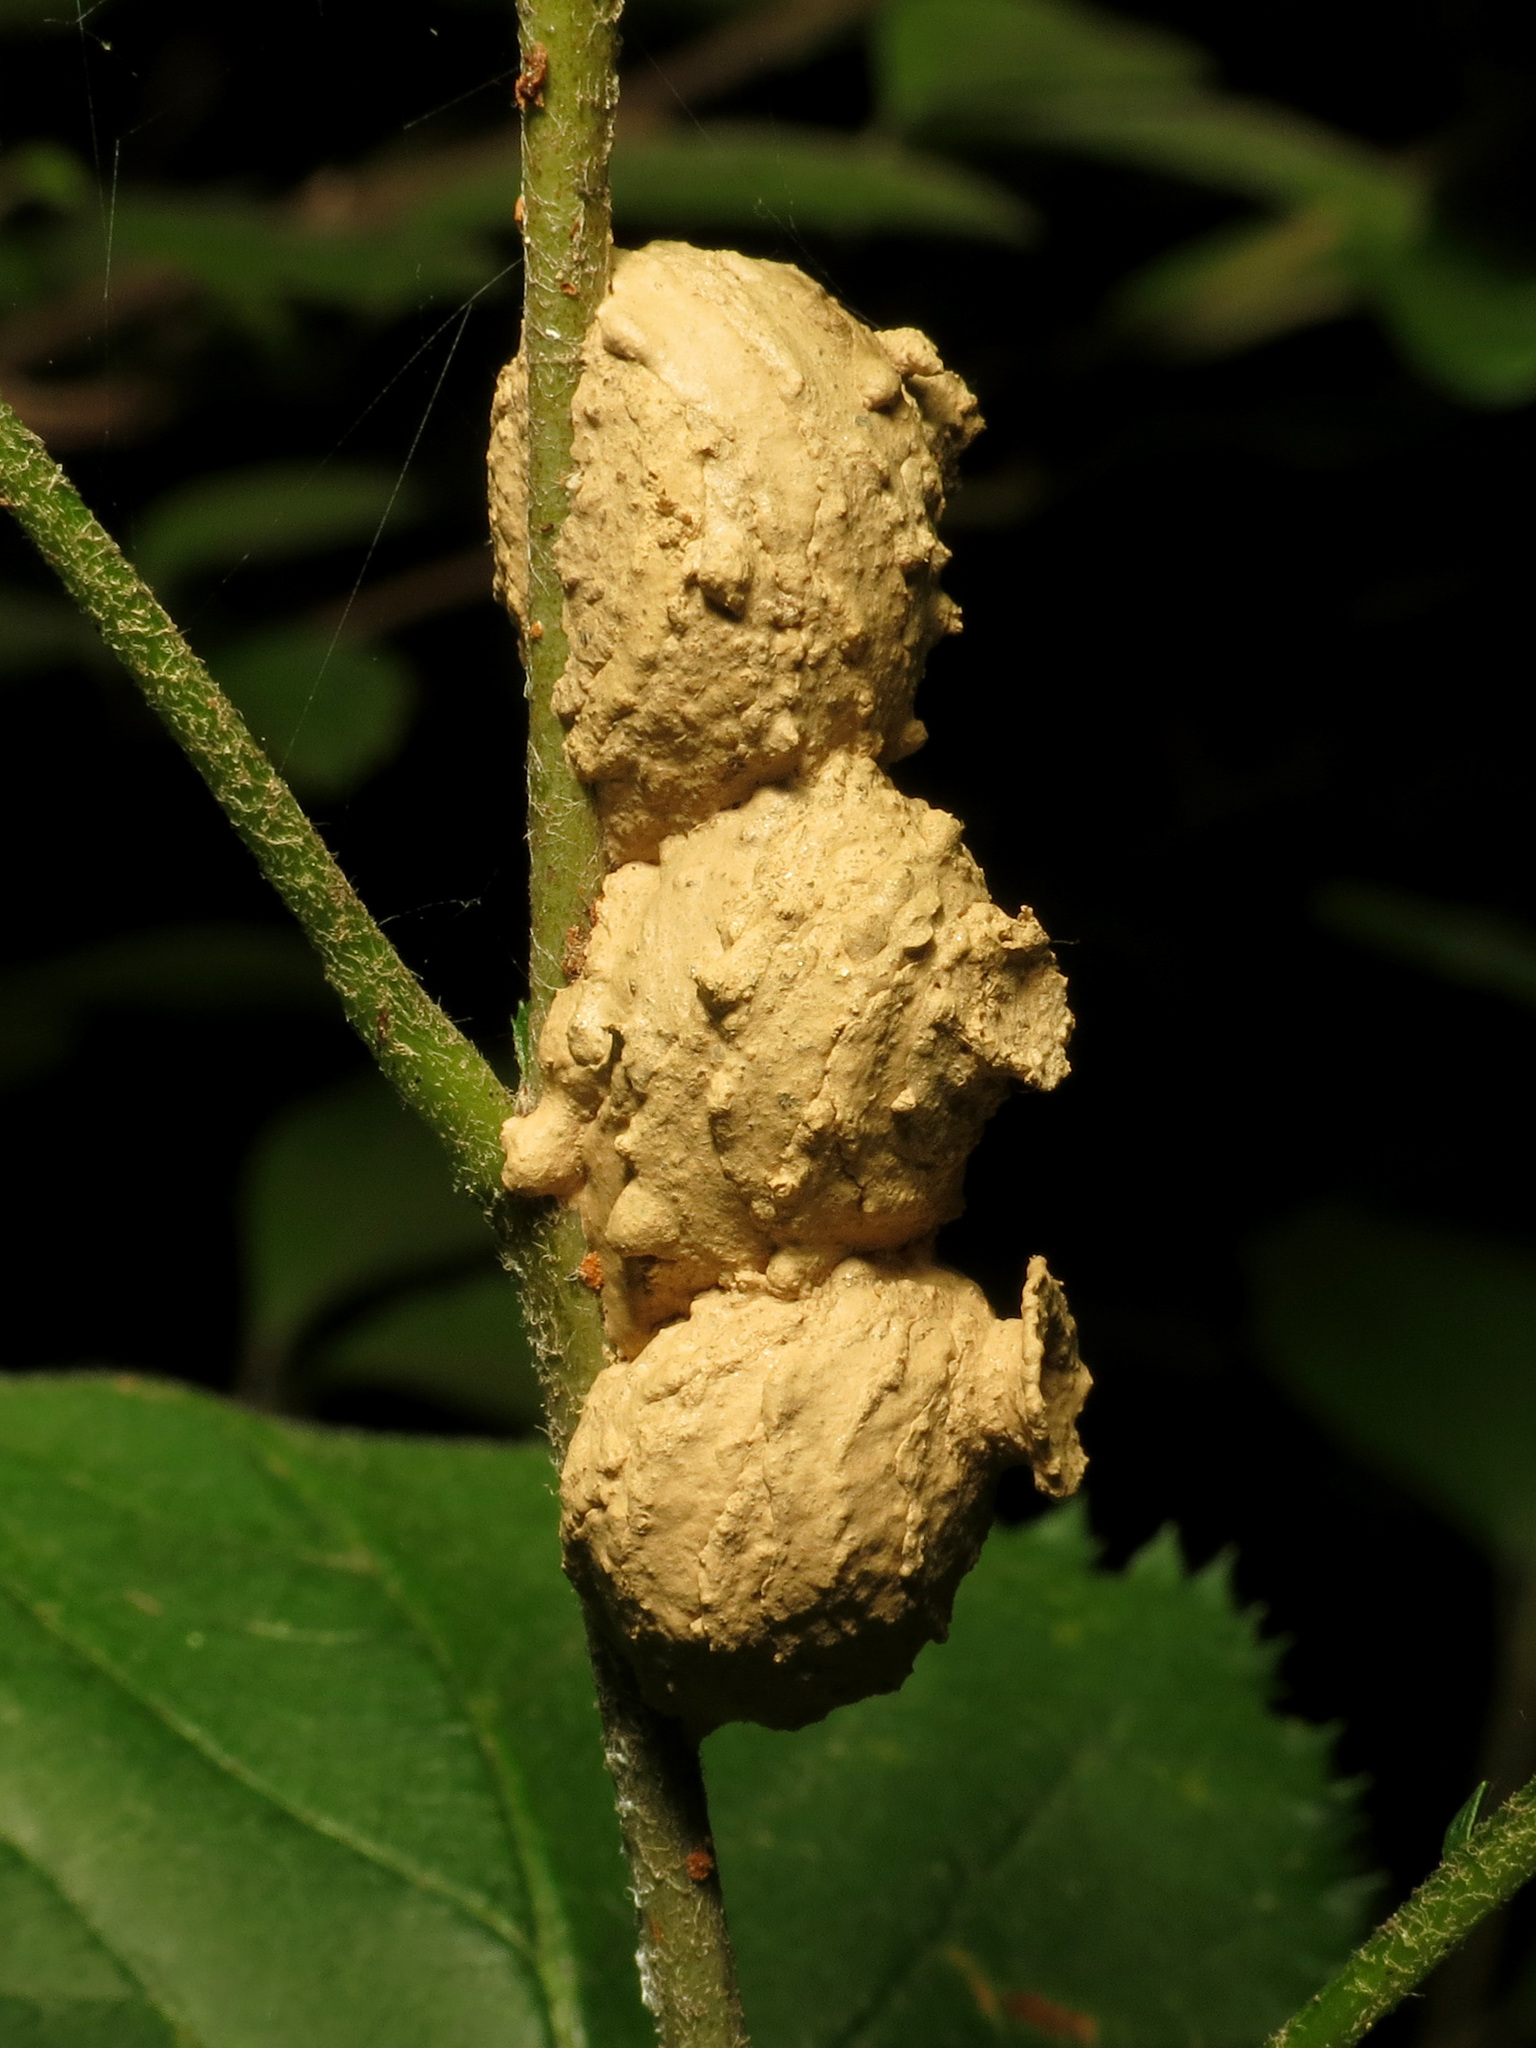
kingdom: Animalia
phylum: Arthropoda
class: Insecta
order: Hymenoptera
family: Vespidae
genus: Eumenes
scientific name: Eumenes
